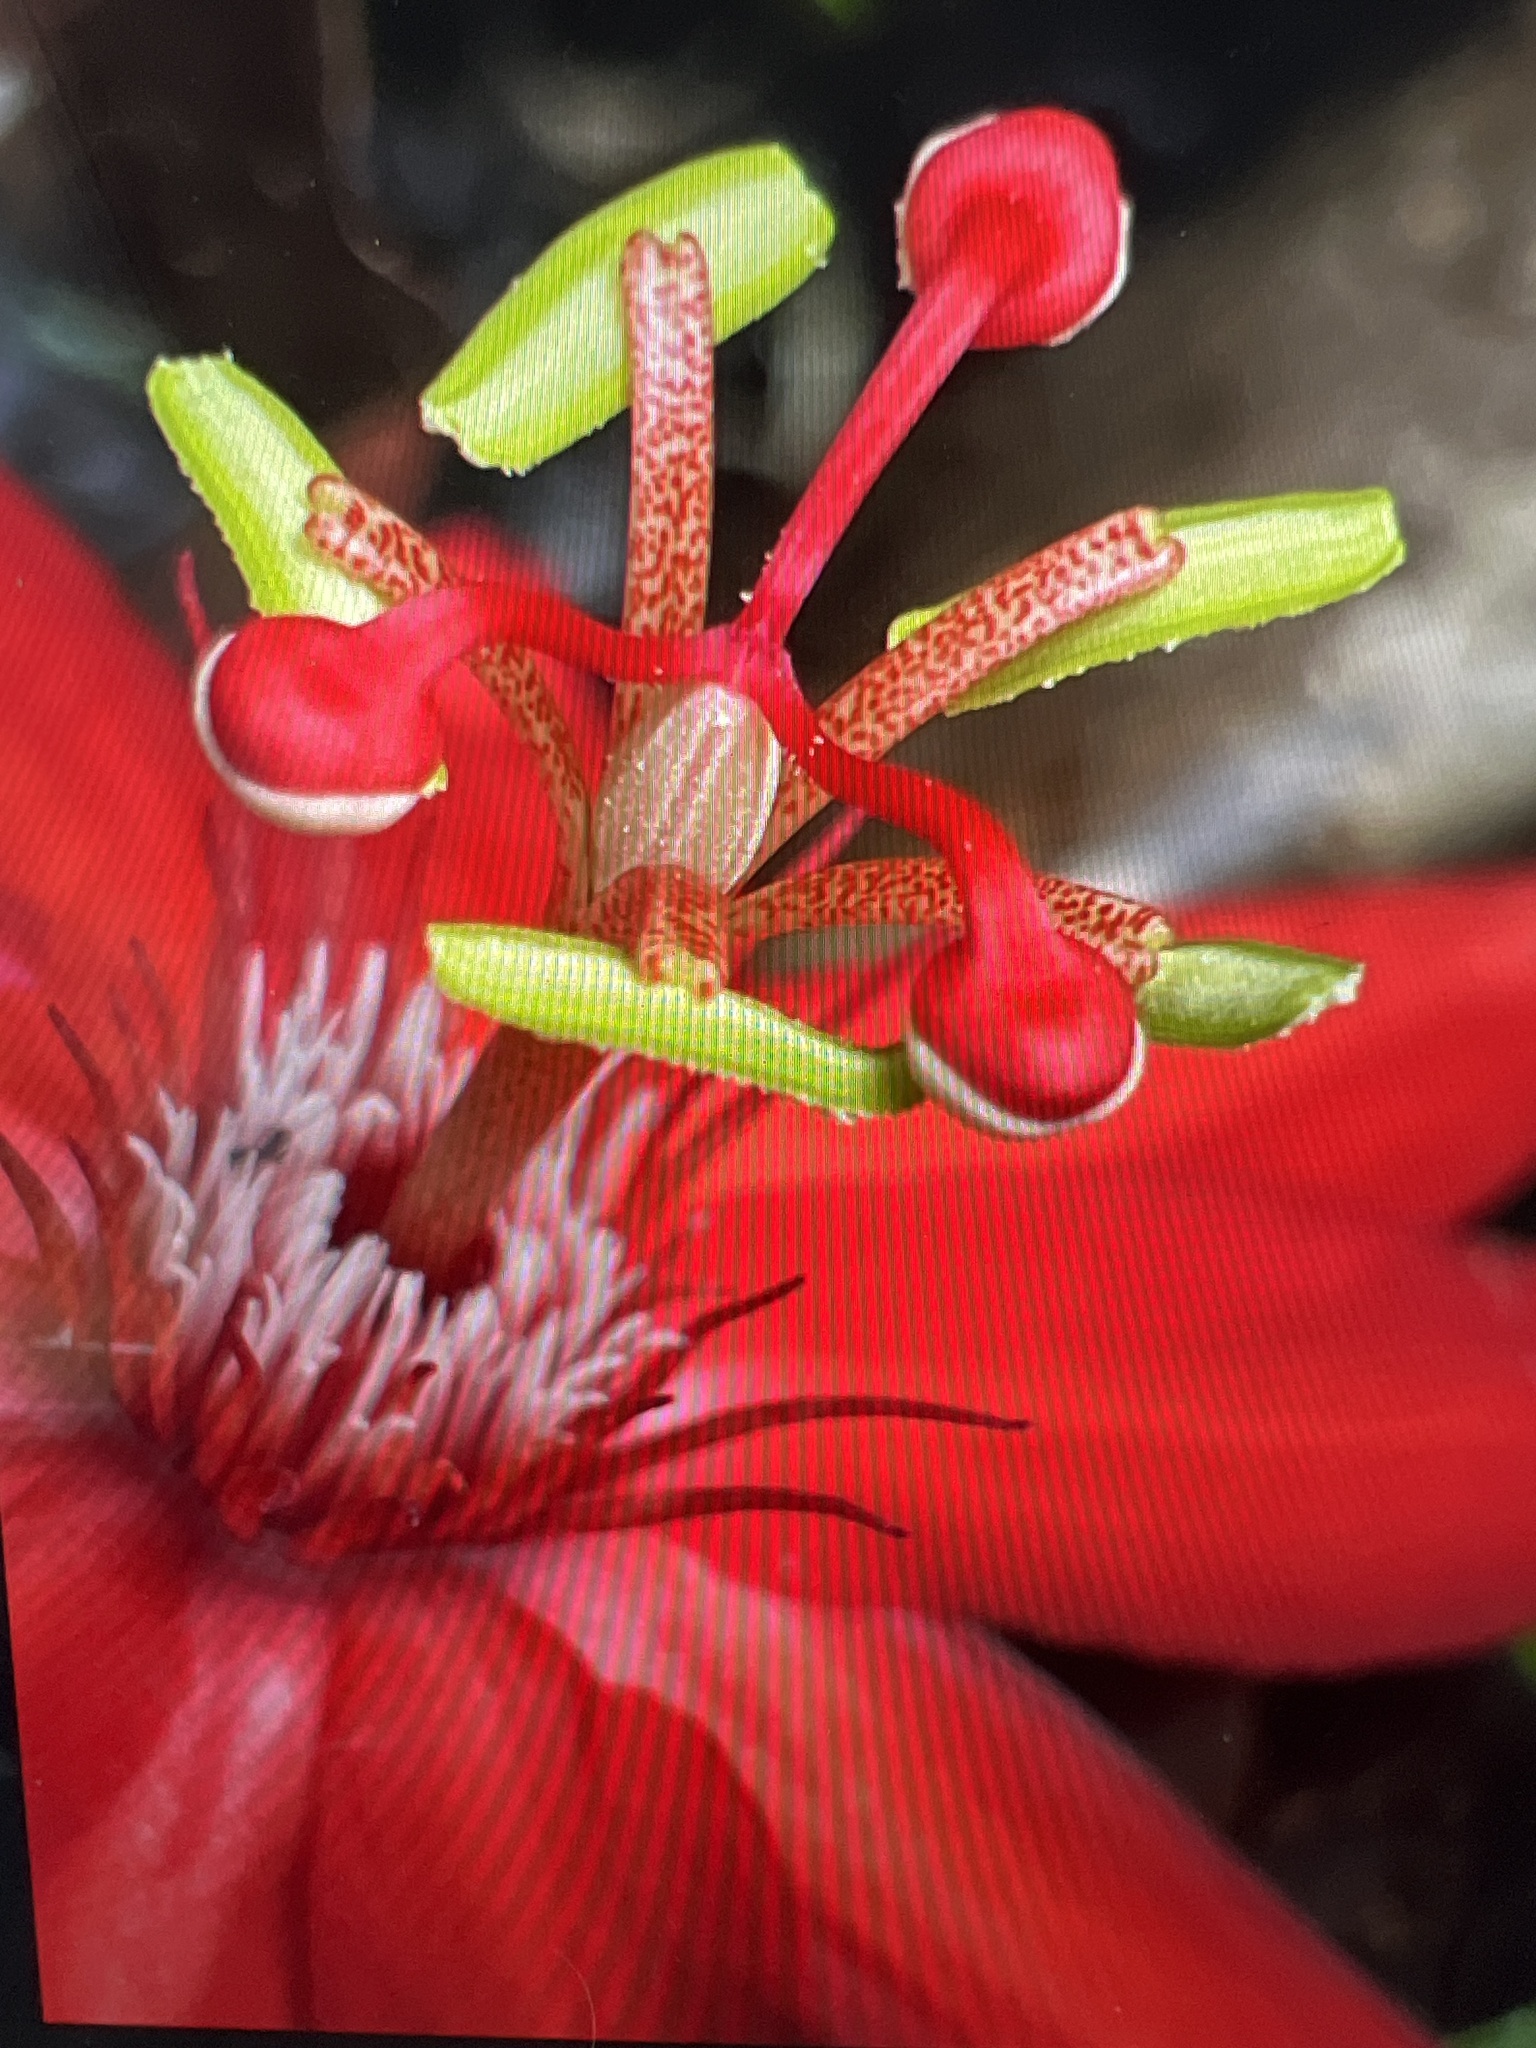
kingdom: Plantae
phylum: Tracheophyta
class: Magnoliopsida
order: Malpighiales
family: Passifloraceae
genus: Passiflora
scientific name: Passiflora vitifolia
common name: Perfumed passionflower
